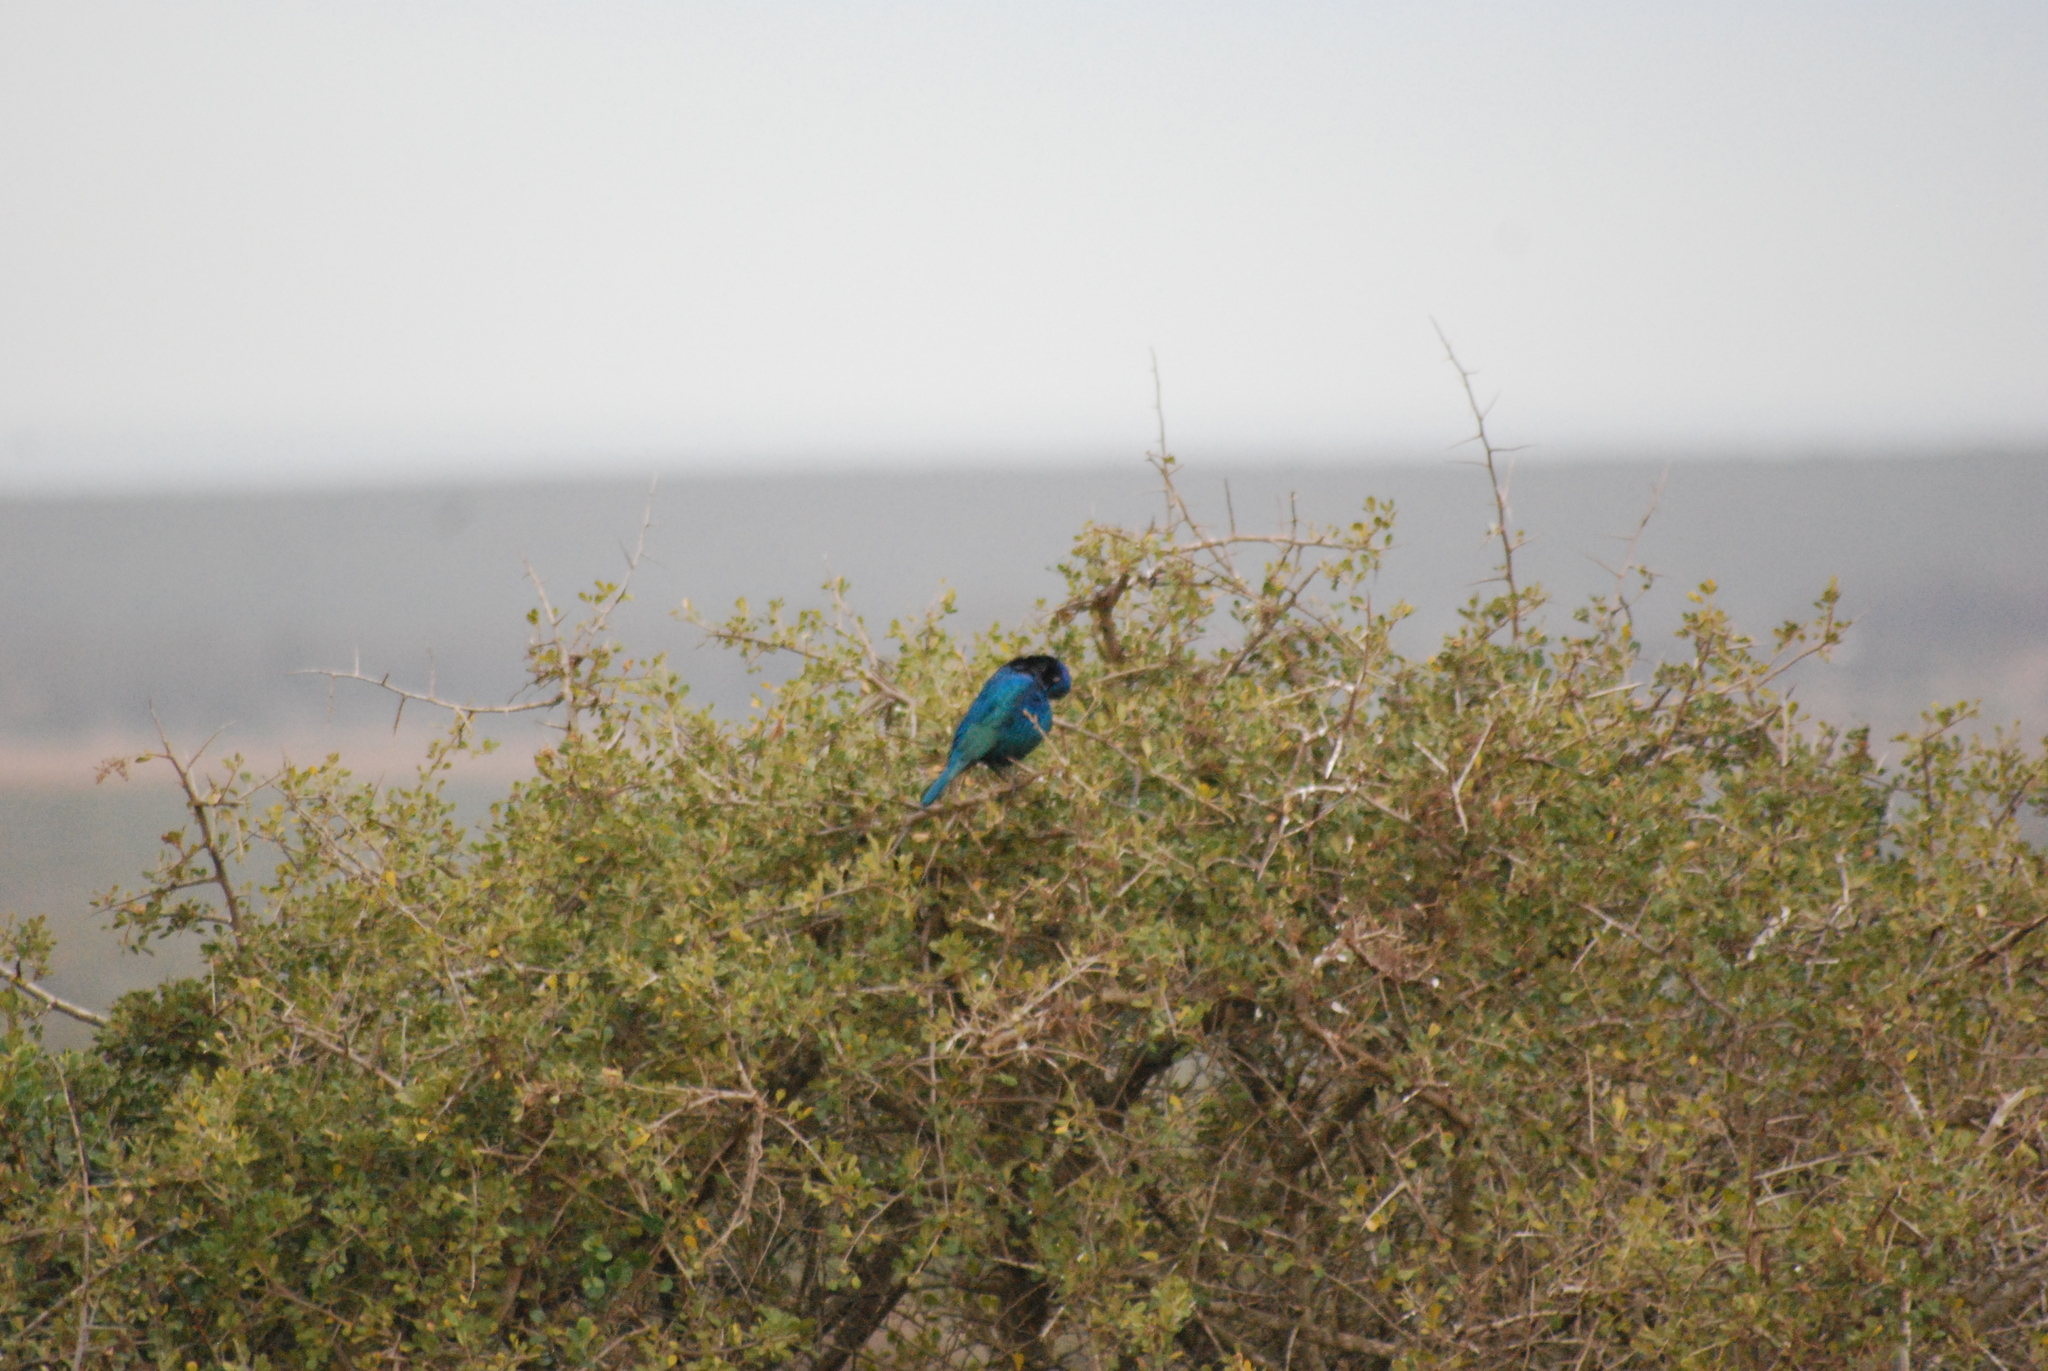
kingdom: Animalia
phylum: Chordata
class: Aves
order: Passeriformes
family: Sturnidae
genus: Lamprotornis
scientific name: Lamprotornis nitens
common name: Cape starling
